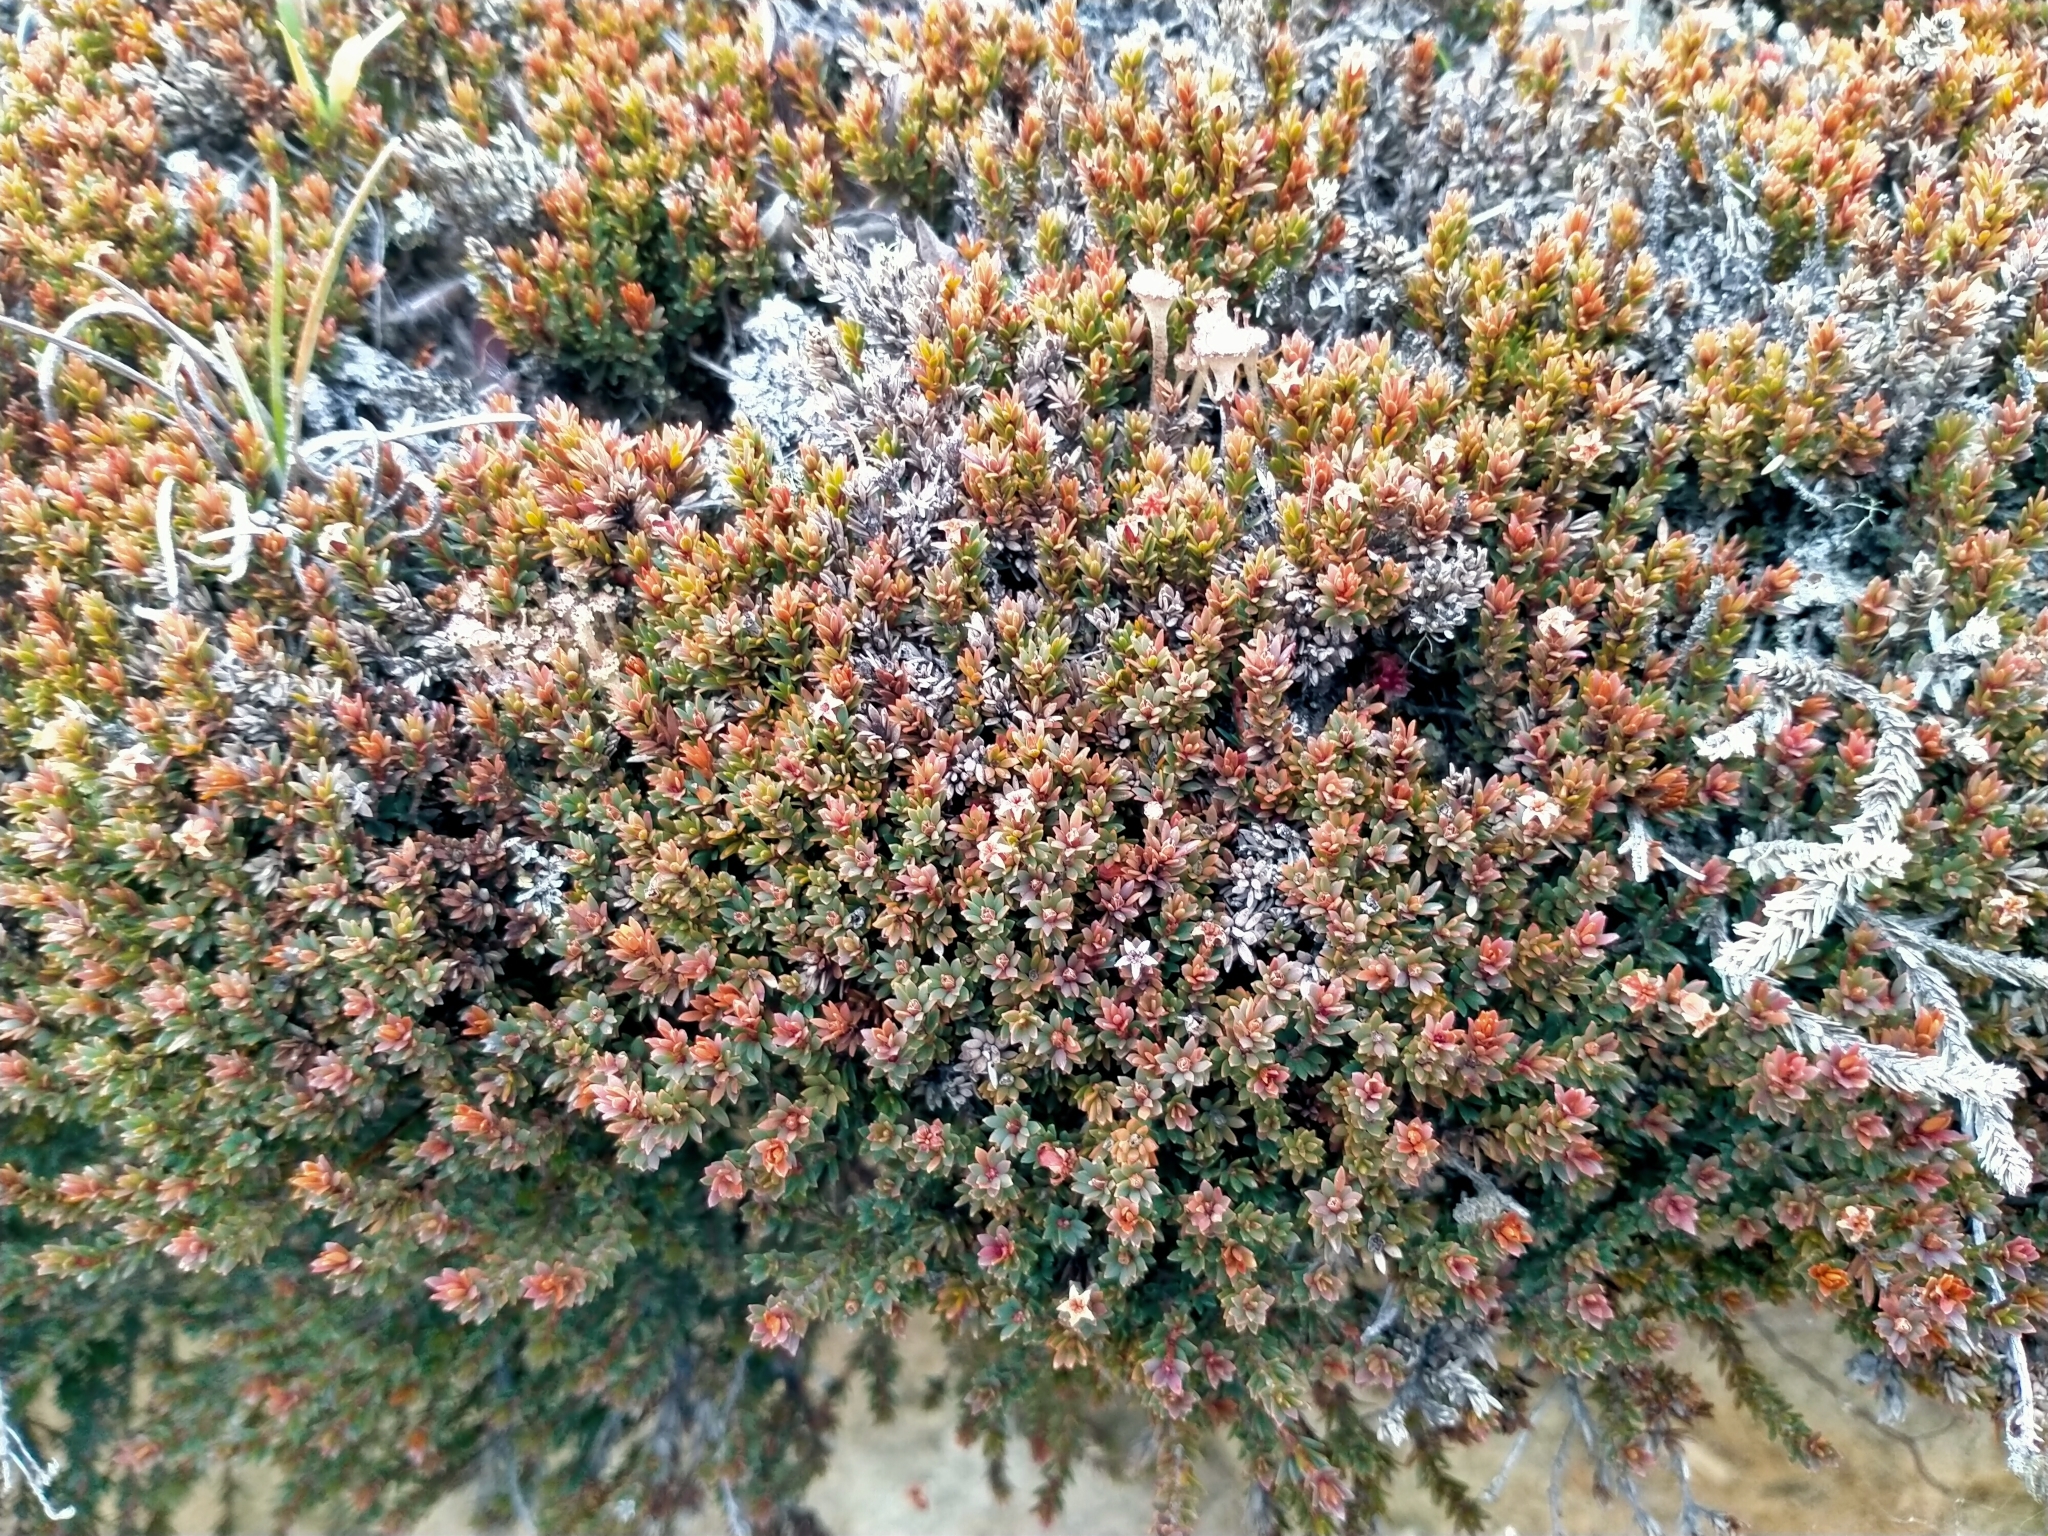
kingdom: Plantae
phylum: Tracheophyta
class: Magnoliopsida
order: Ericales
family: Ericaceae
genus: Pentachondra
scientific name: Pentachondra pumila
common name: Carpet-heath
